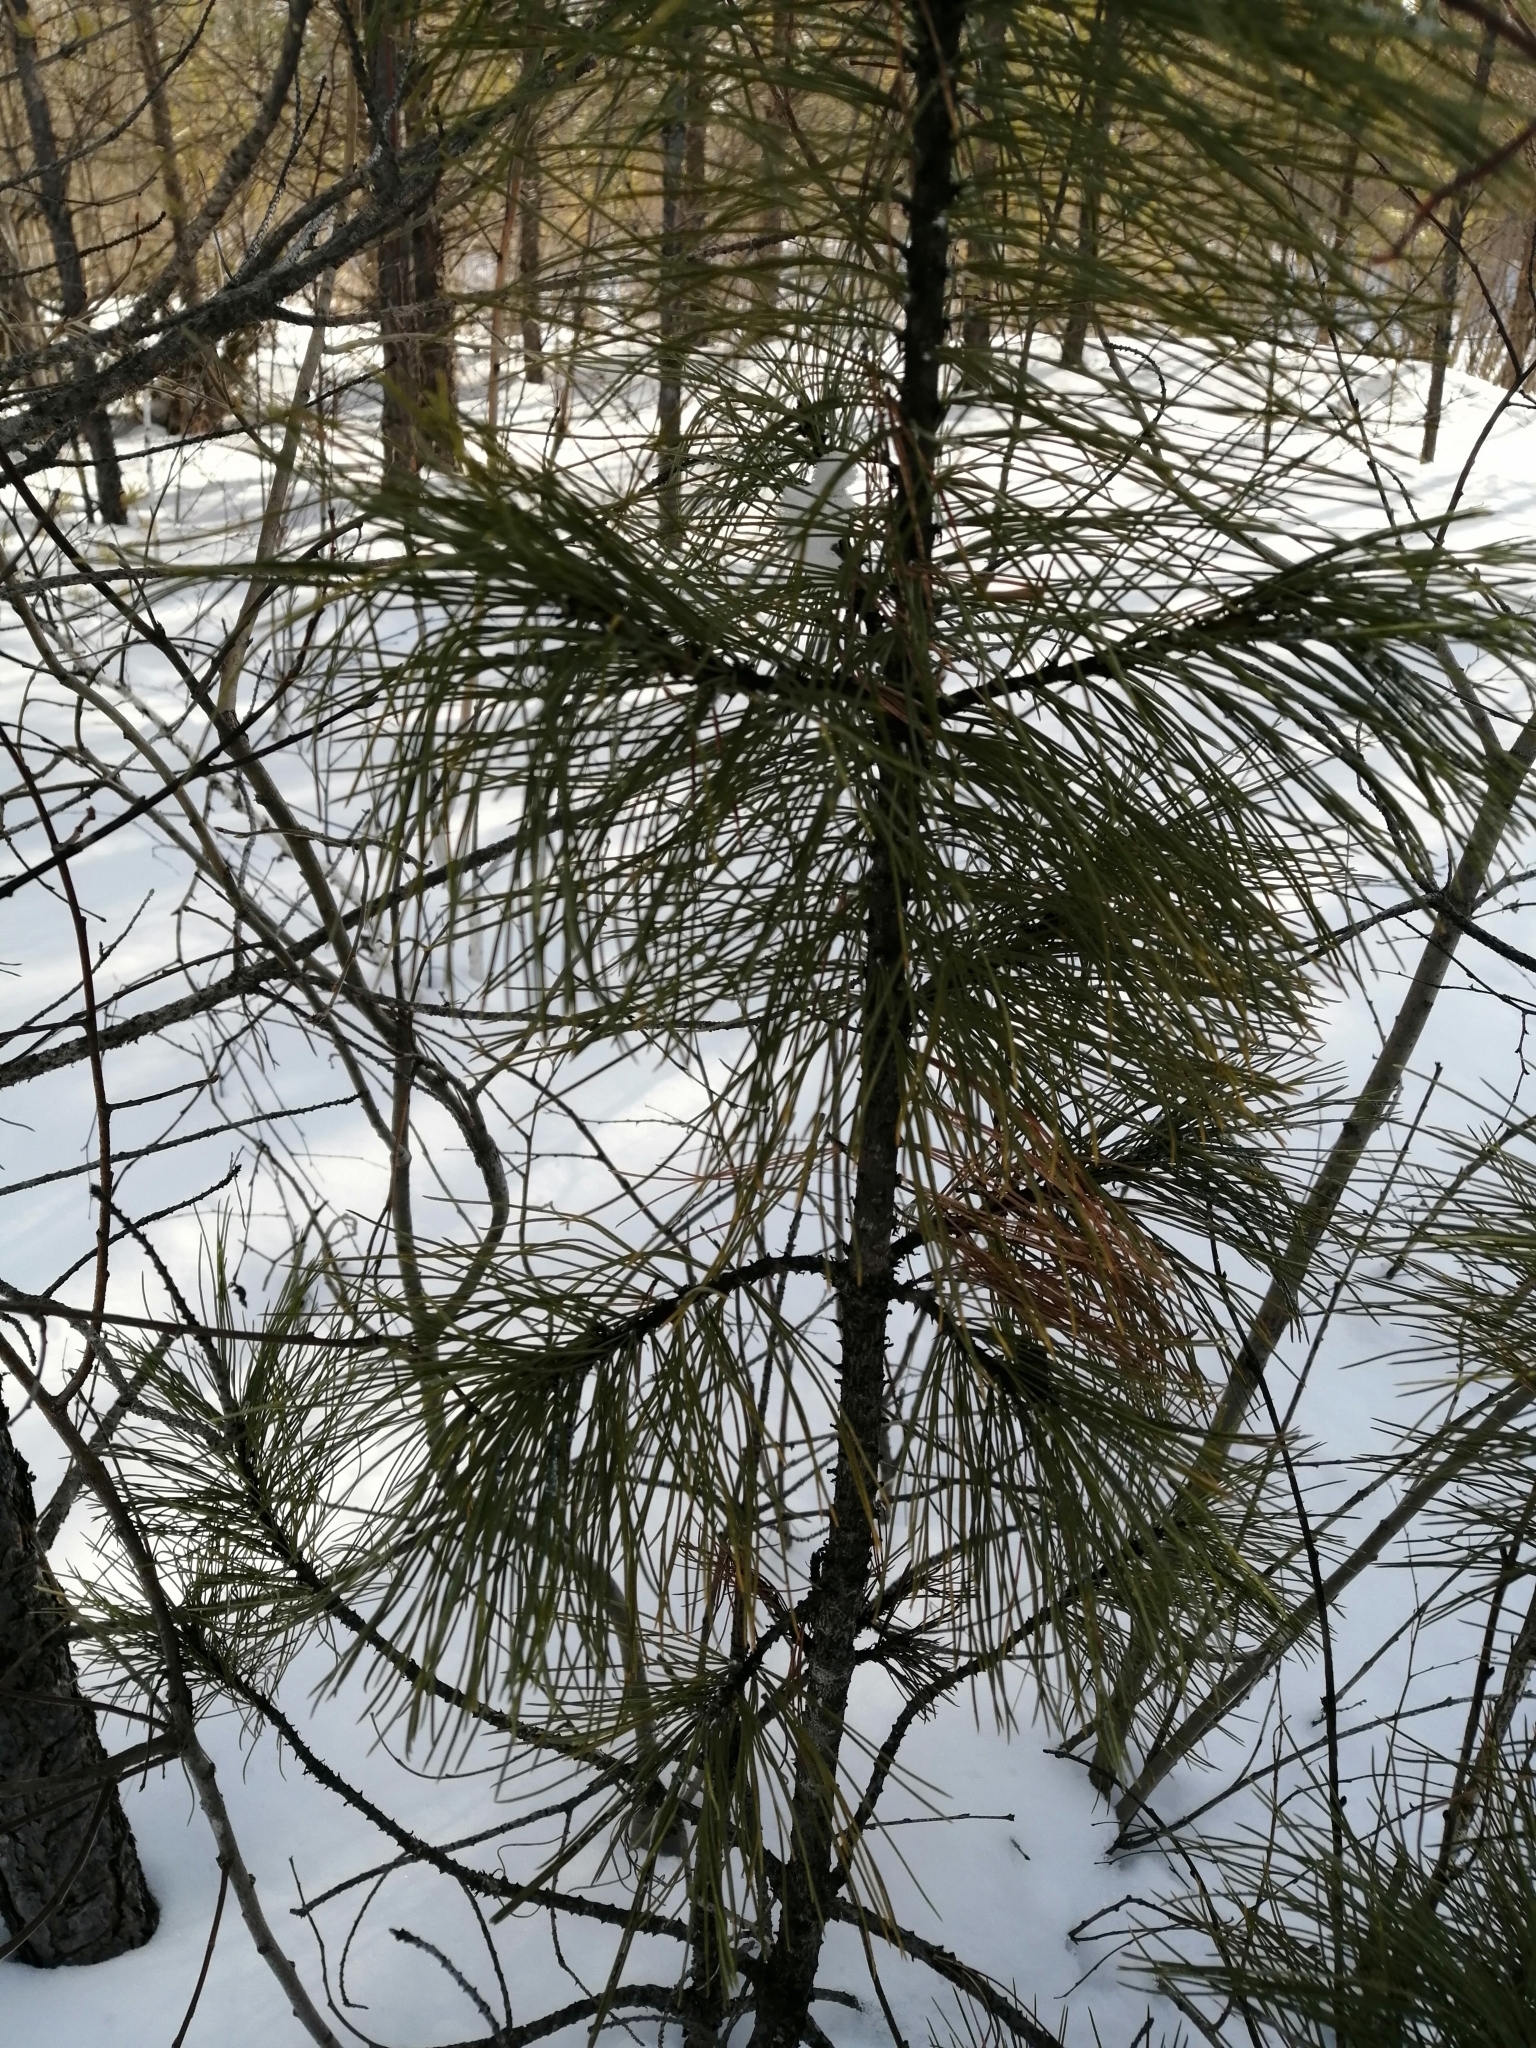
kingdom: Plantae
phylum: Tracheophyta
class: Pinopsida
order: Pinales
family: Pinaceae
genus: Pinus
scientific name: Pinus sibirica
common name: Siberian pine
